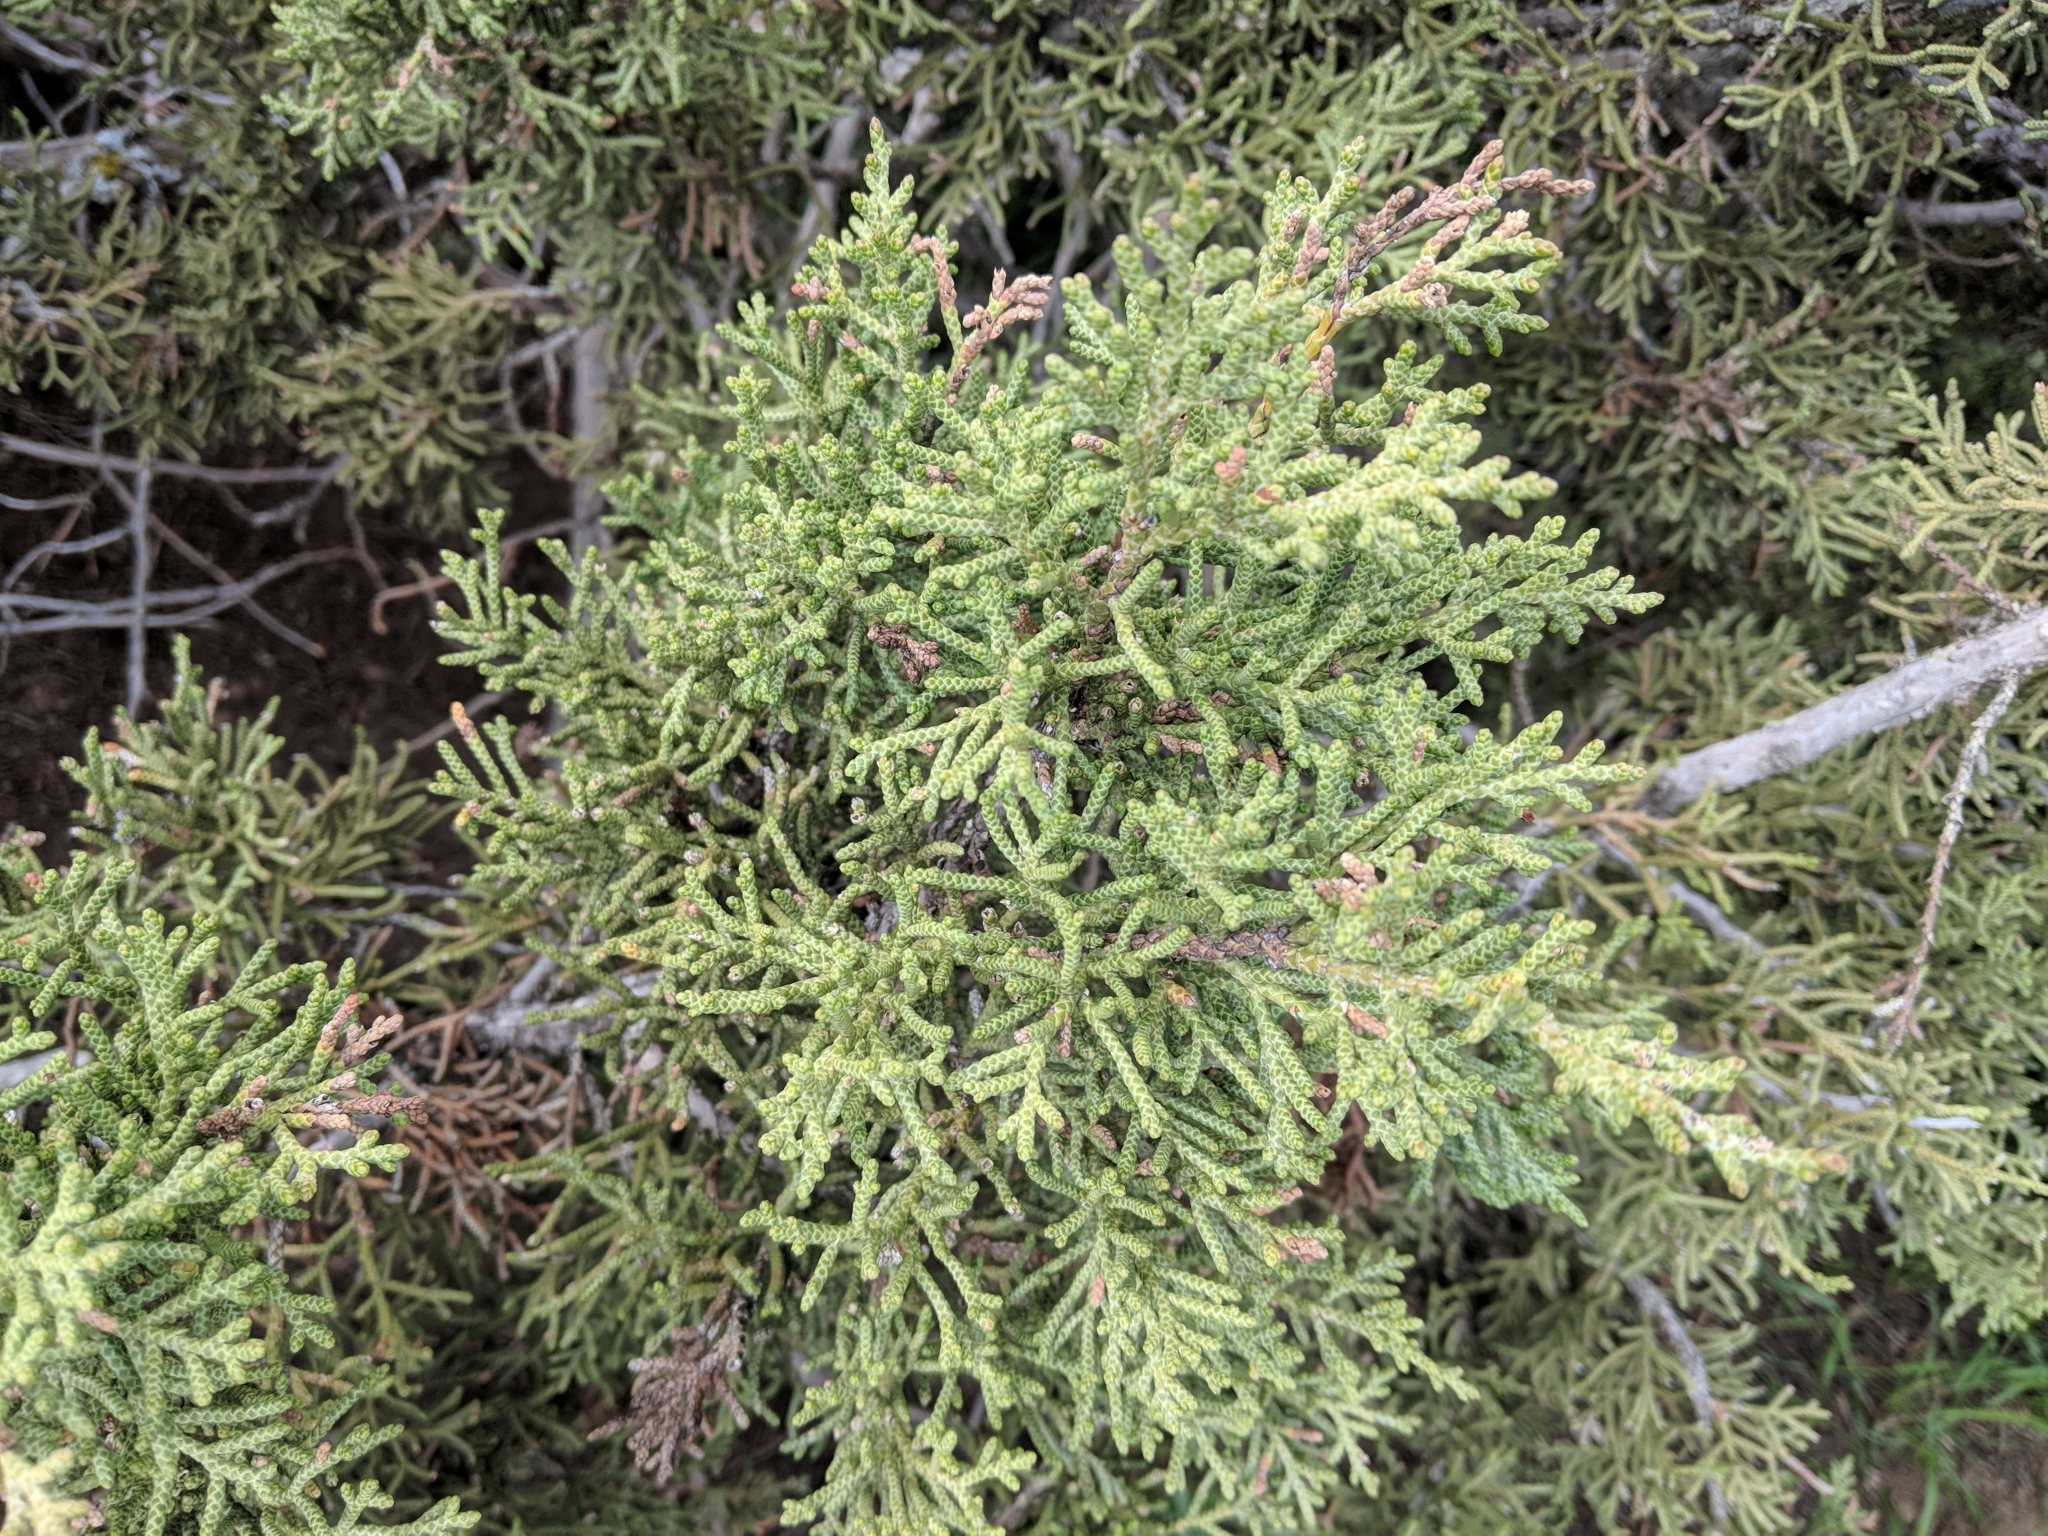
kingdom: Plantae
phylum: Tracheophyta
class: Pinopsida
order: Pinales
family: Cupressaceae
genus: Juniperus
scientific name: Juniperus californica
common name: California juniper
